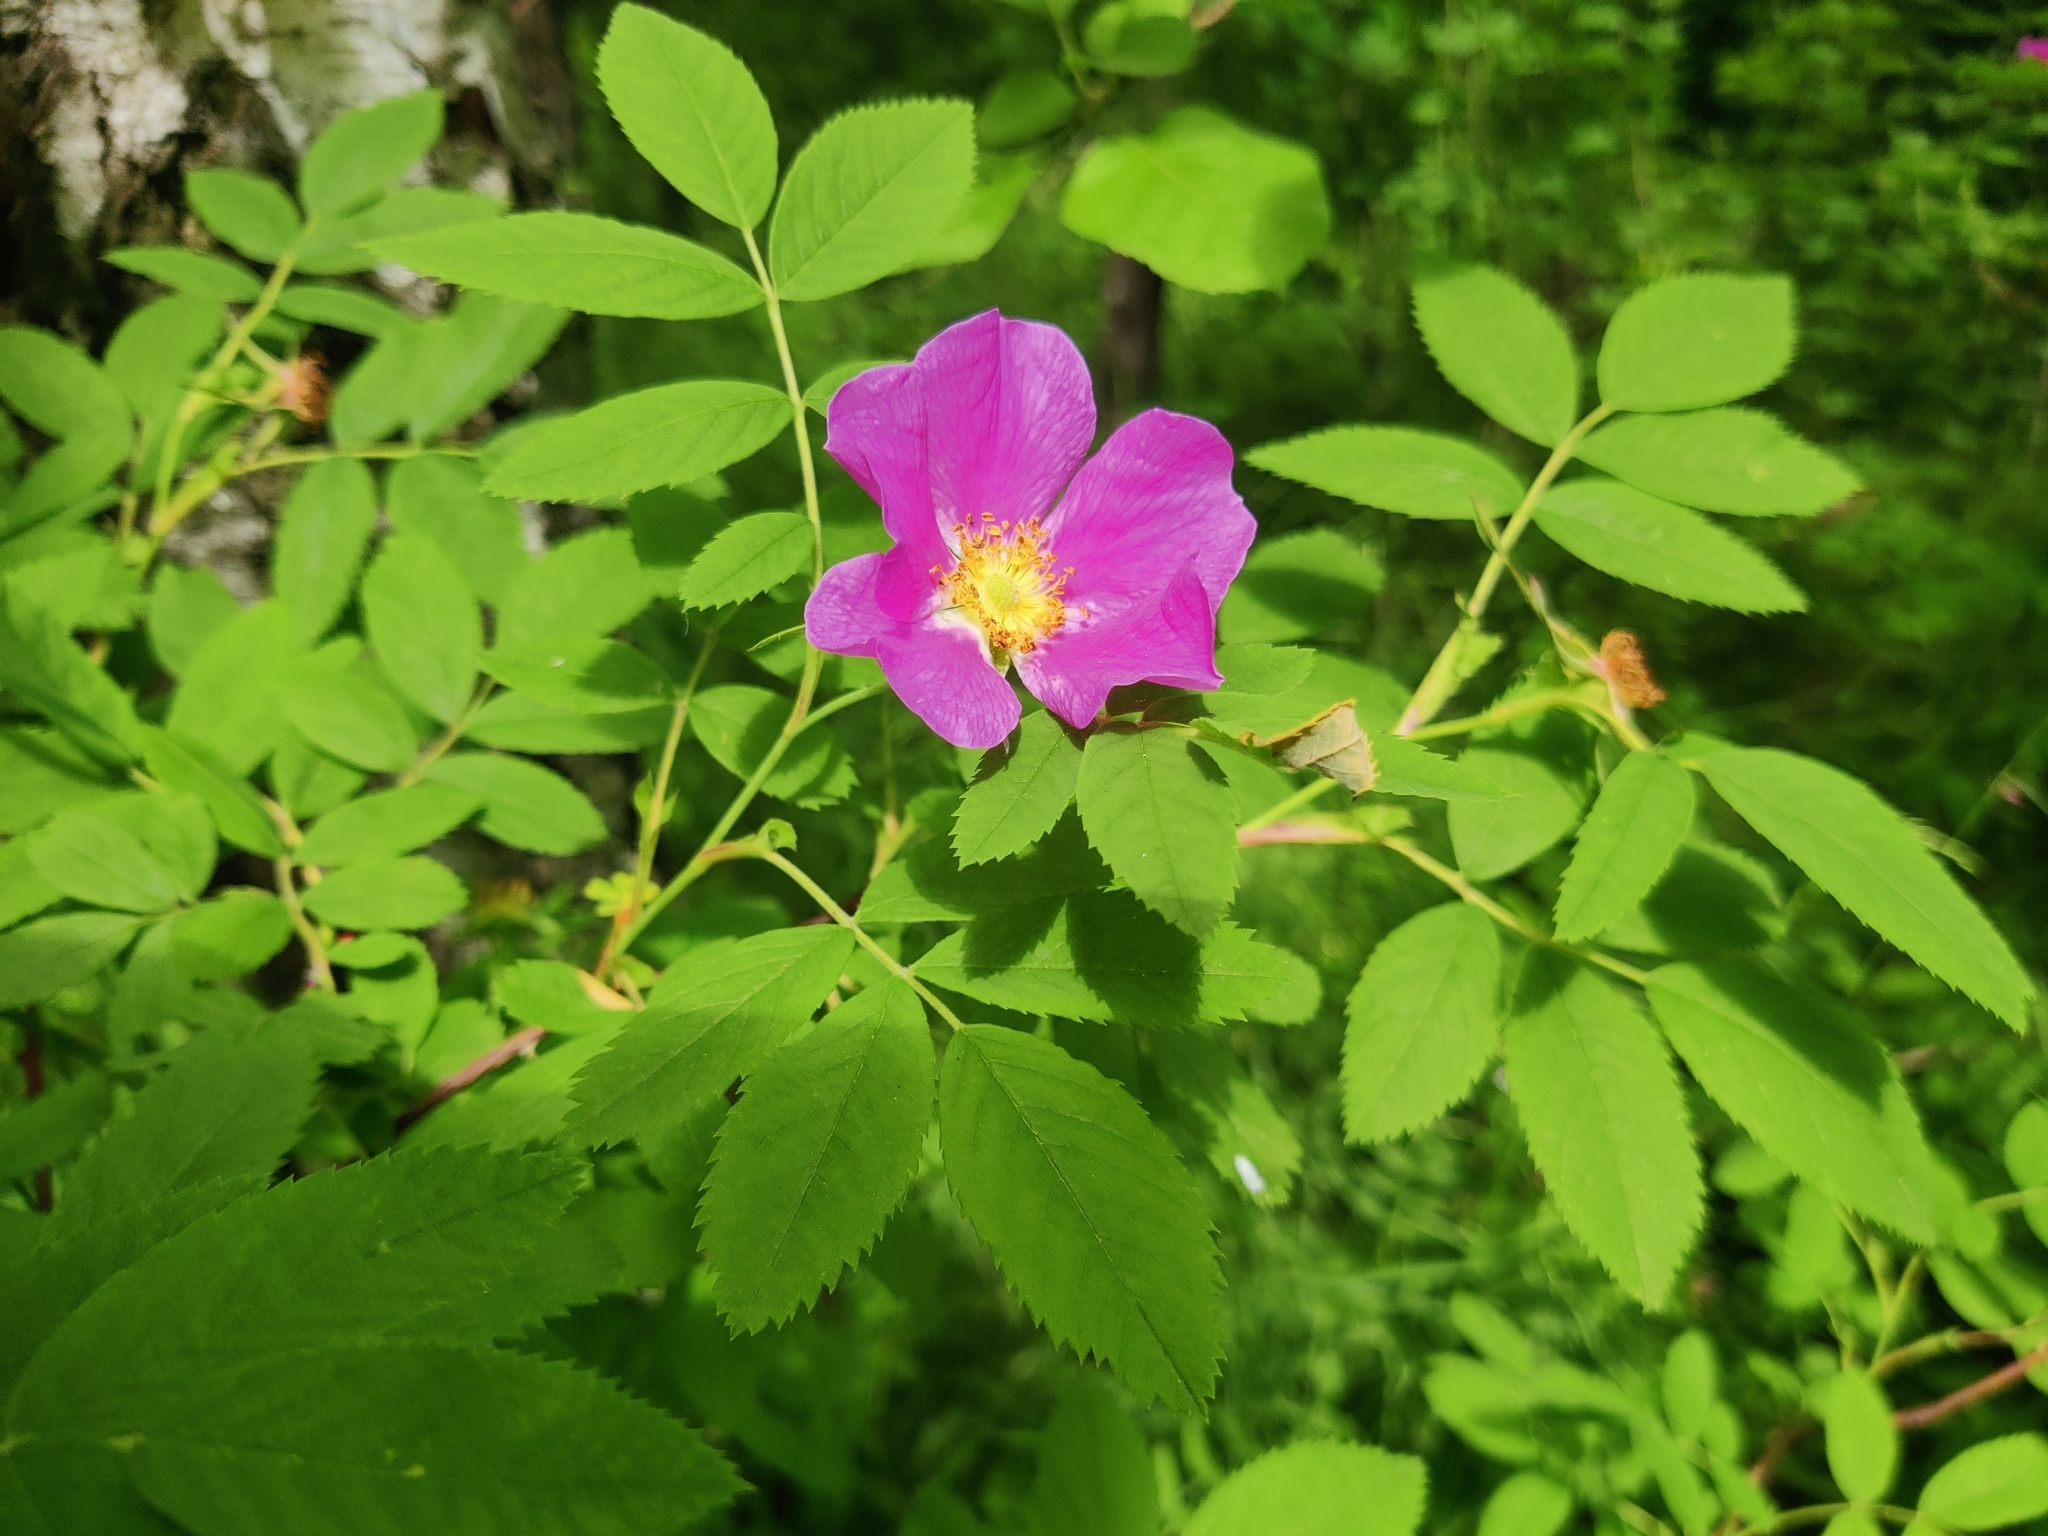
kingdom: Plantae
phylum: Tracheophyta
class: Magnoliopsida
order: Rosales
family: Rosaceae
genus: Rosa
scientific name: Rosa majalis
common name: Cinnamon rose
